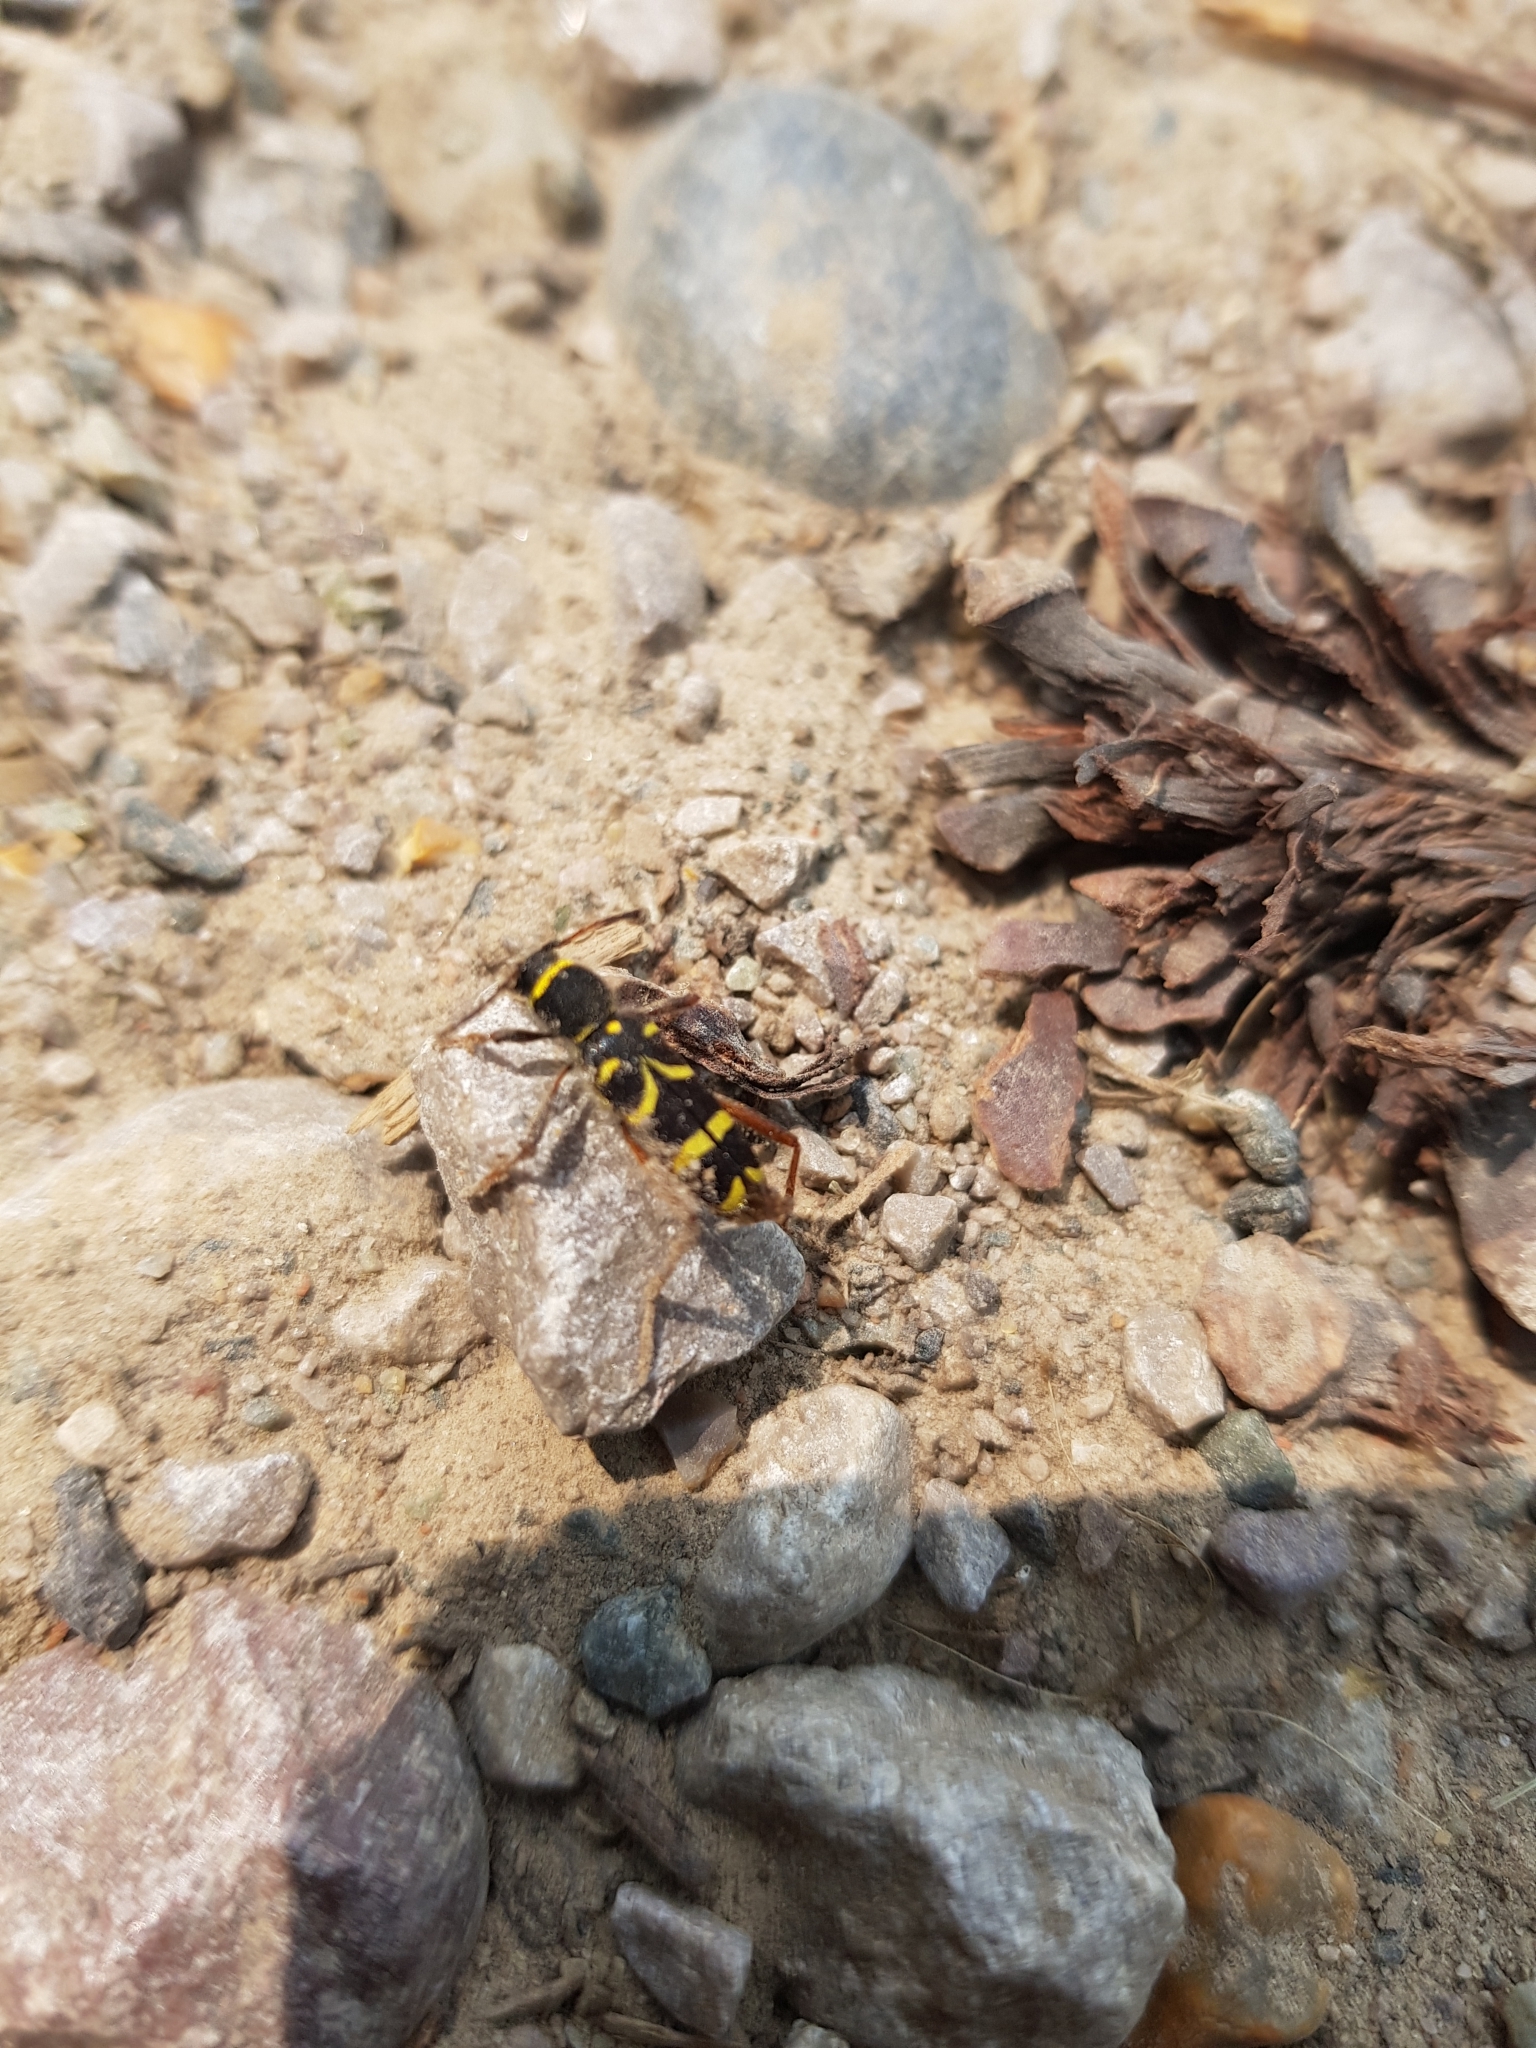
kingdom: Animalia
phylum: Arthropoda
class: Insecta
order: Coleoptera
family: Cerambycidae
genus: Clytus
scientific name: Clytus arietis
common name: Wasp beetle
